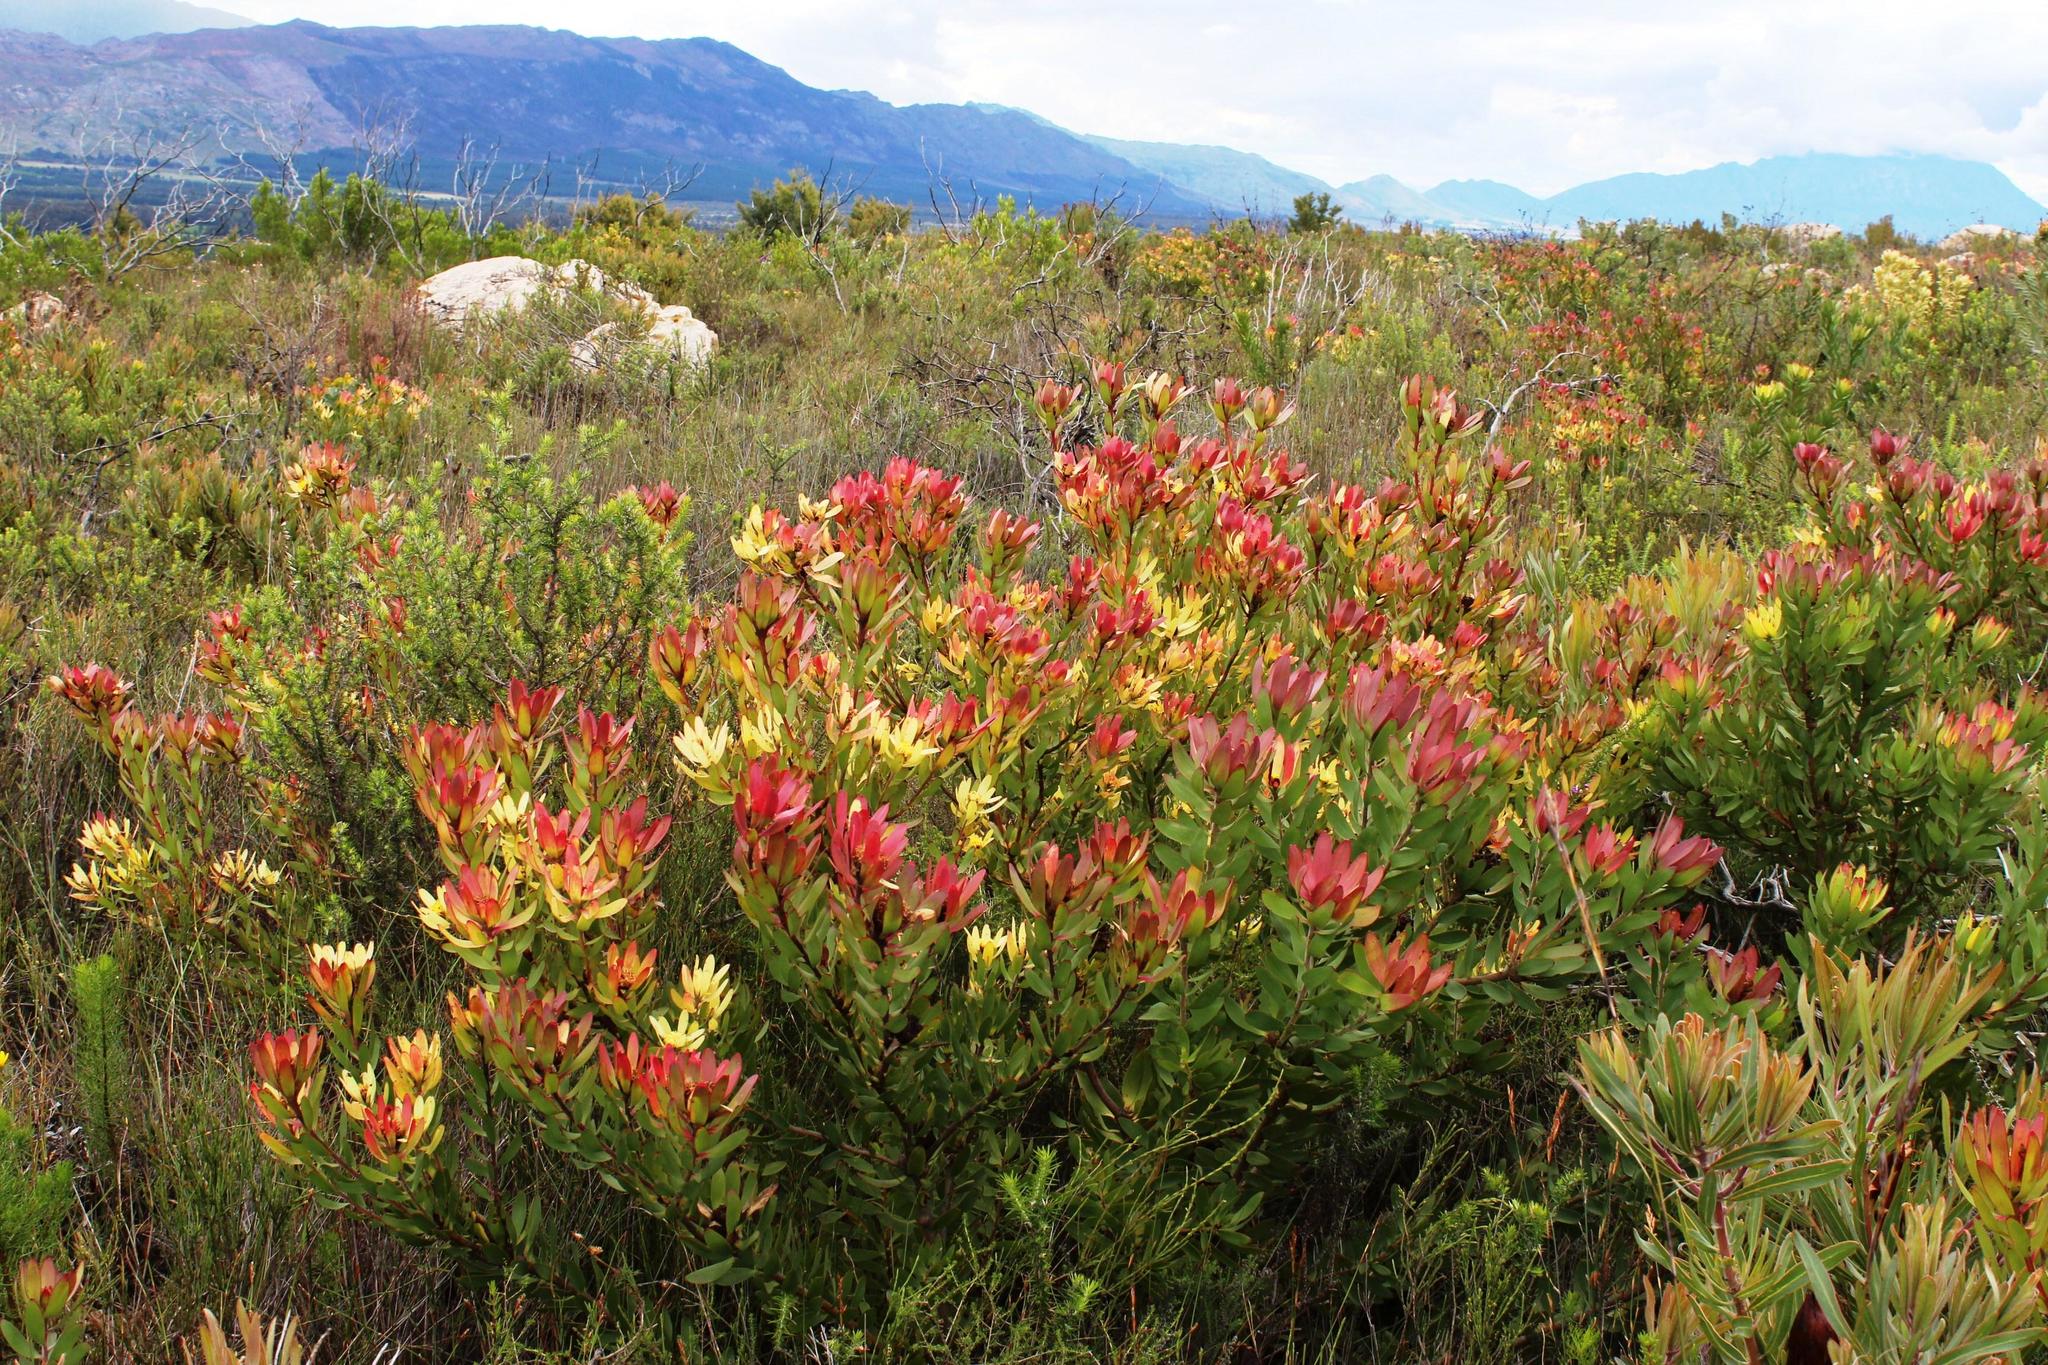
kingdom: Plantae
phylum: Tracheophyta
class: Magnoliopsida
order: Proteales
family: Proteaceae
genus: Leucadendron
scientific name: Leucadendron sessile
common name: Western sunbush
